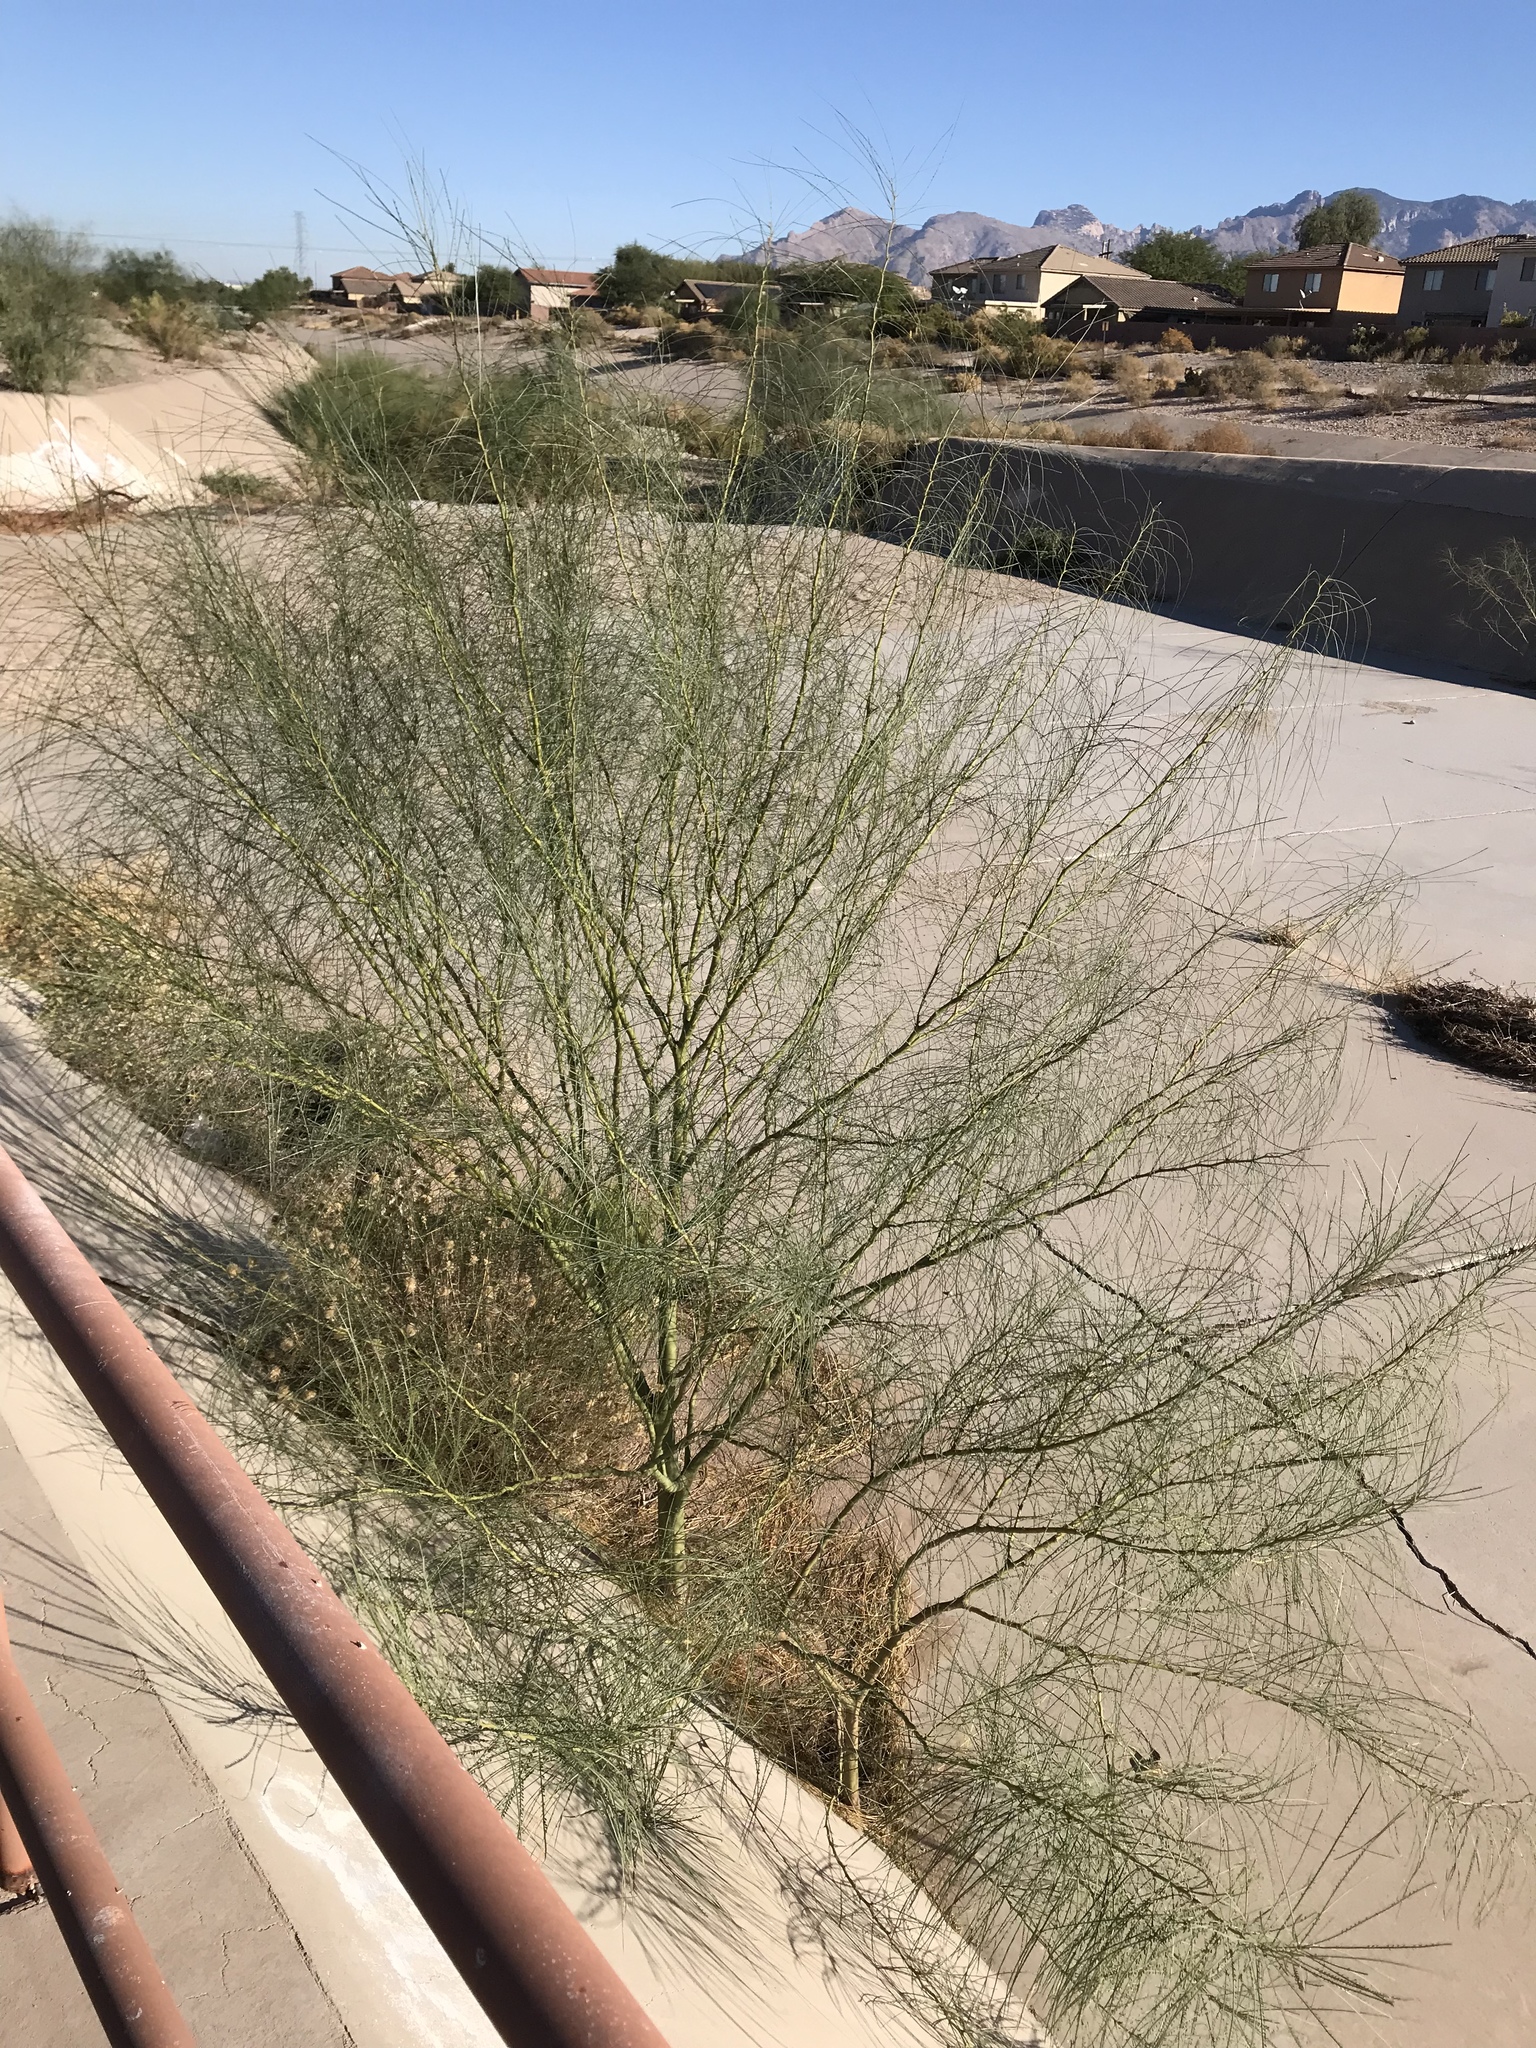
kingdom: Plantae
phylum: Tracheophyta
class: Magnoliopsida
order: Fabales
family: Fabaceae
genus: Parkinsonia
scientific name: Parkinsonia aculeata
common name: Jerusalem thorn
